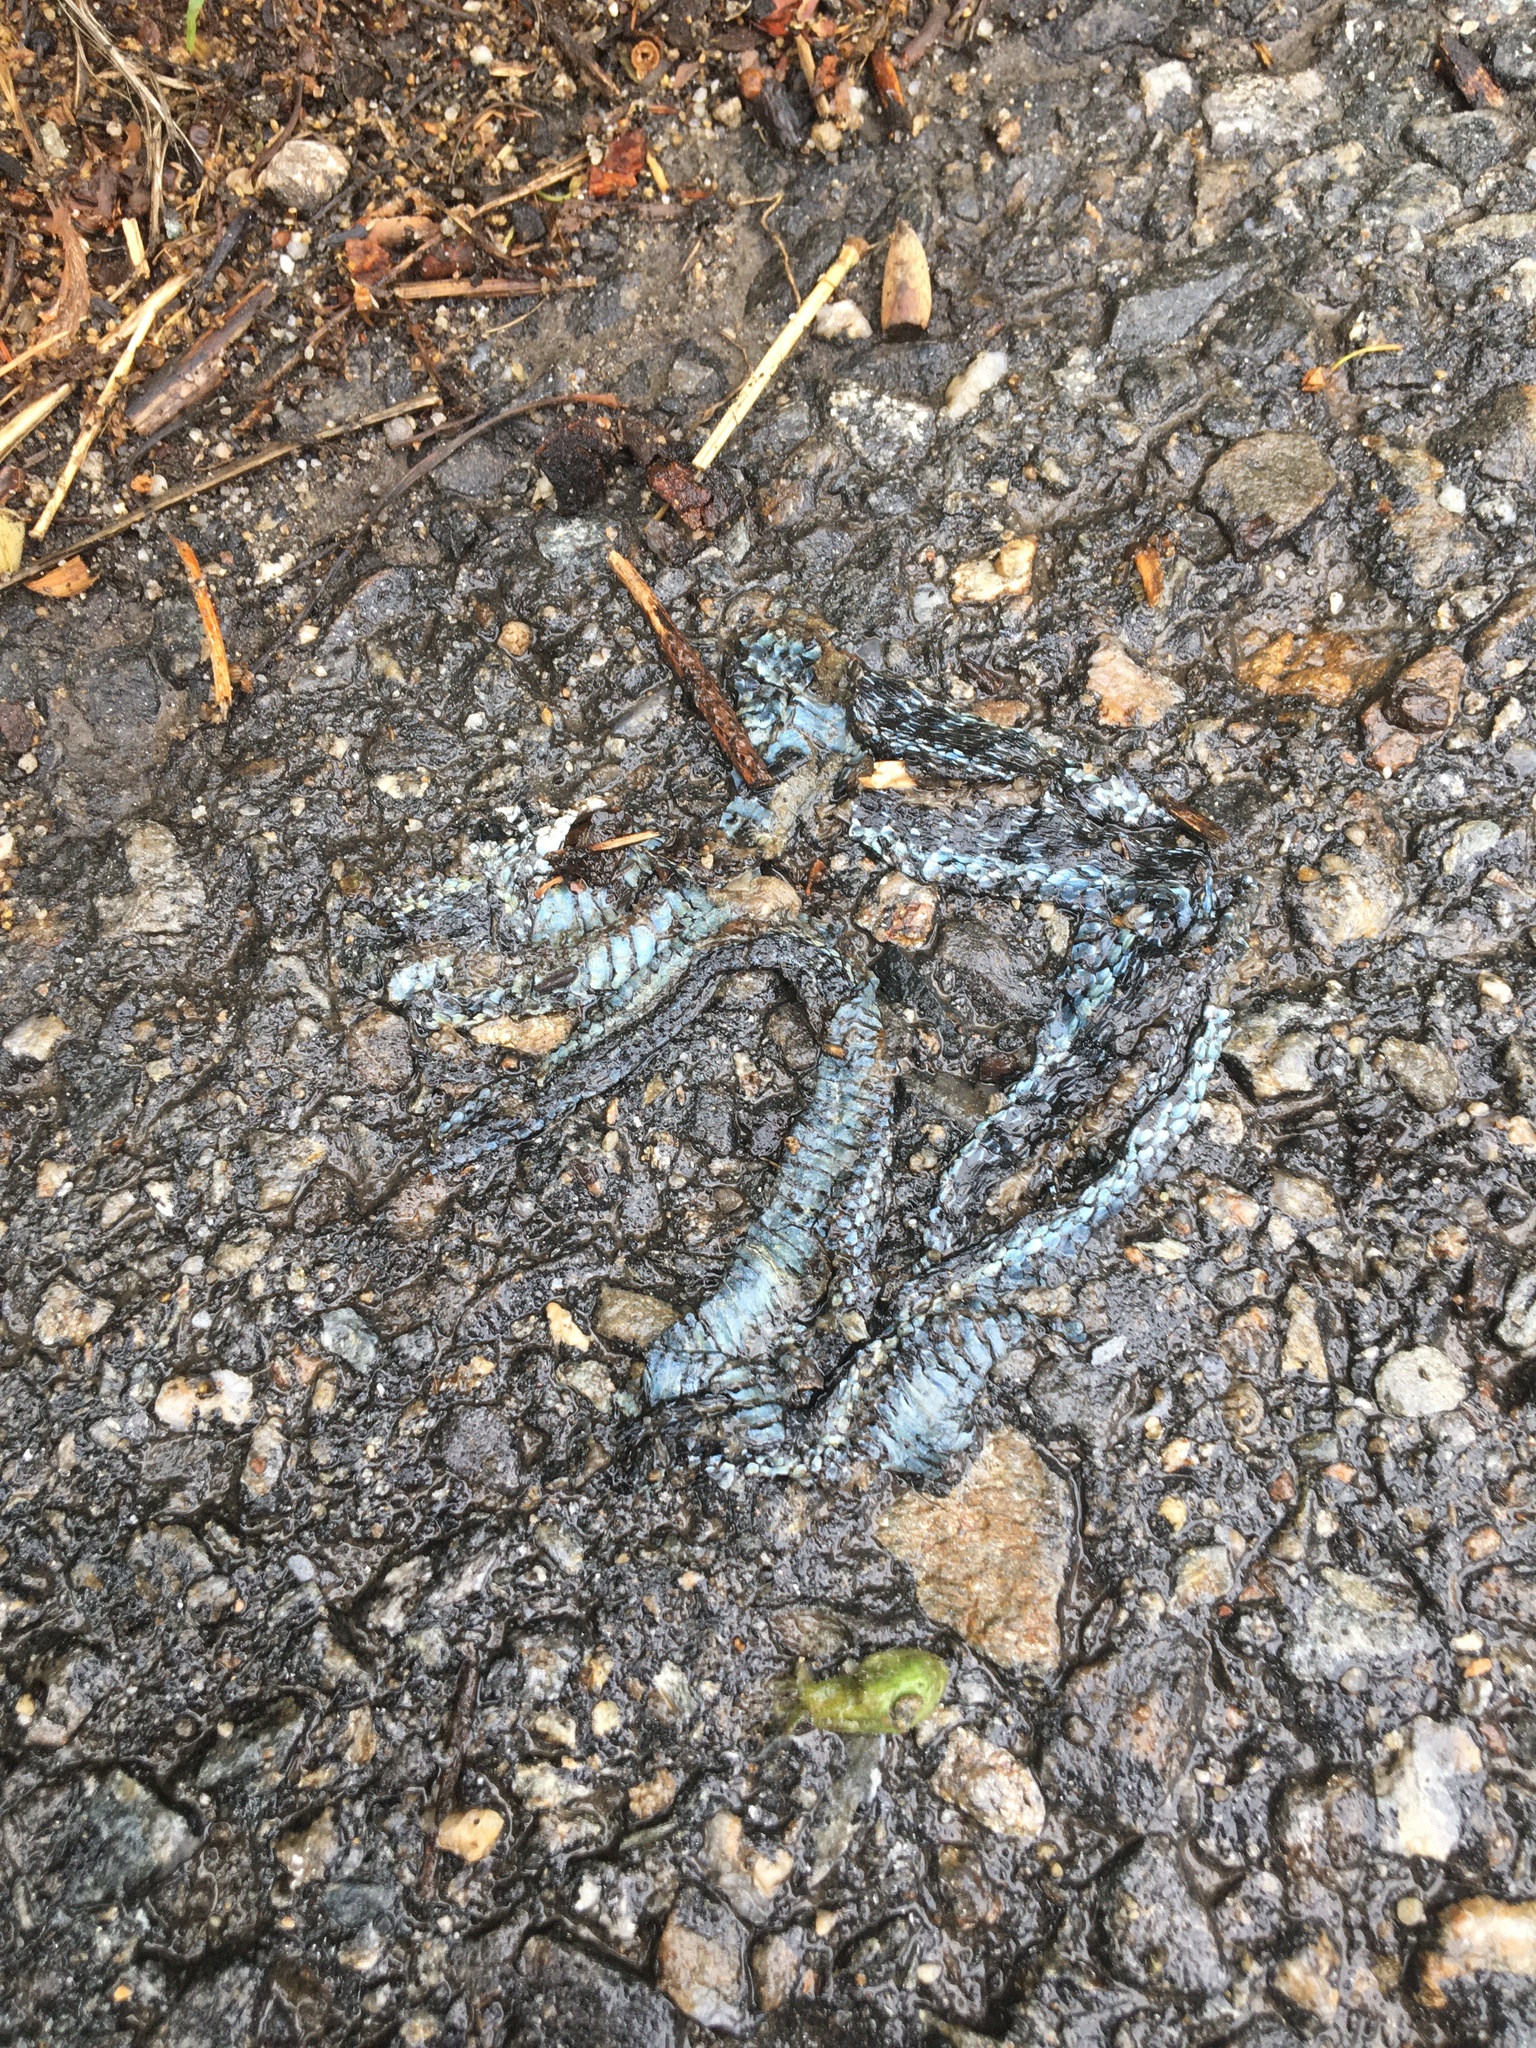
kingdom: Animalia
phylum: Chordata
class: Squamata
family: Colubridae
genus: Thamnophis
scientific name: Thamnophis sirtalis
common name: Common garter snake
